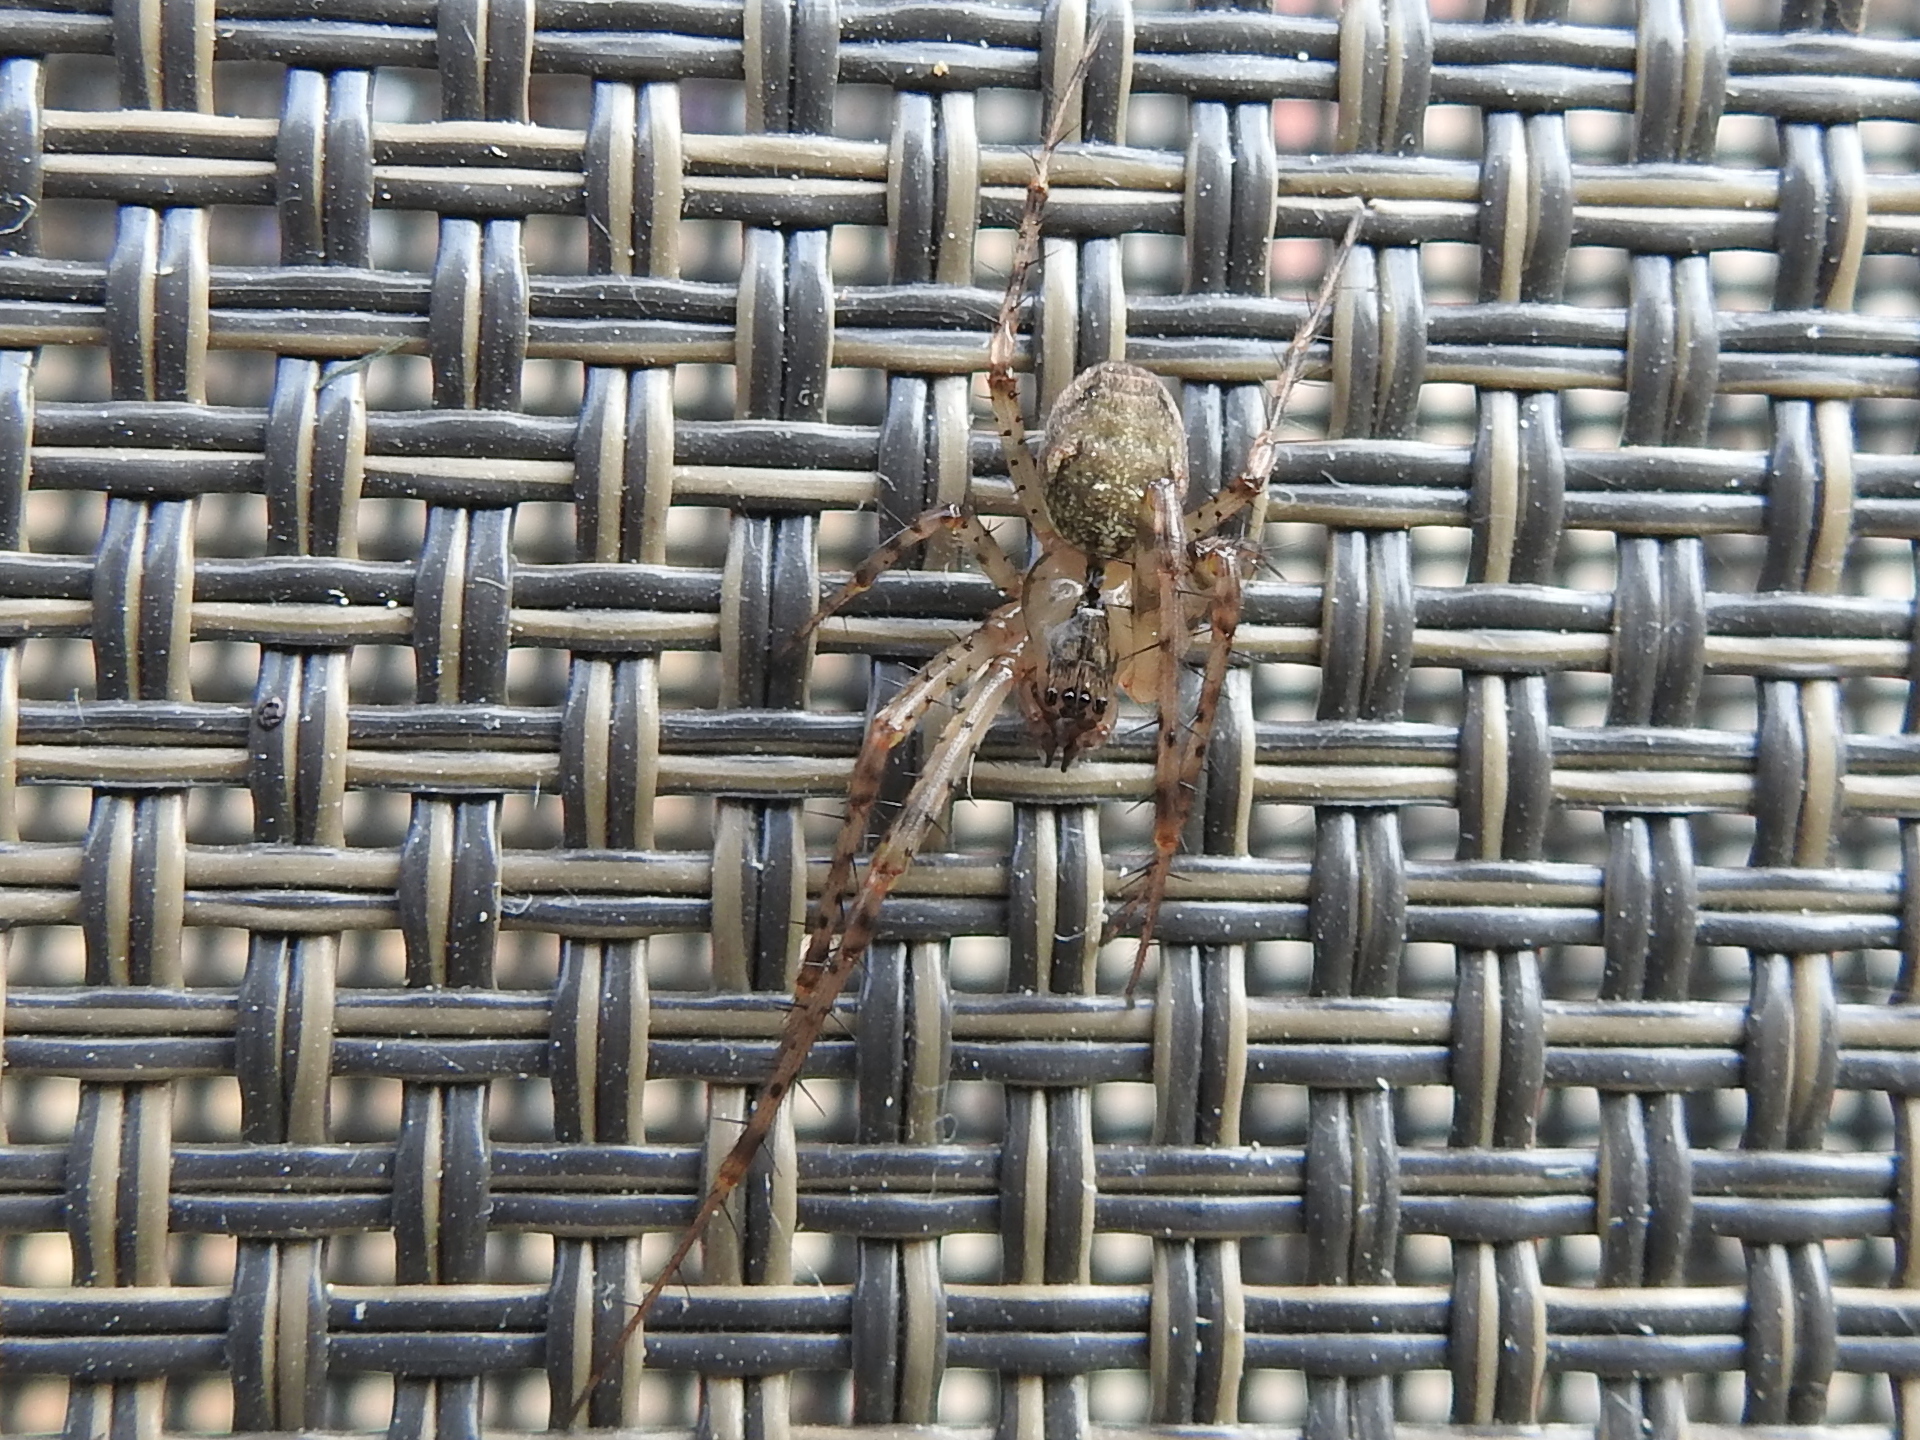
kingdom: Animalia
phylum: Arthropoda
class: Arachnida
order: Araneae
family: Tetragnathidae
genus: Metellina
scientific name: Metellina merianae
